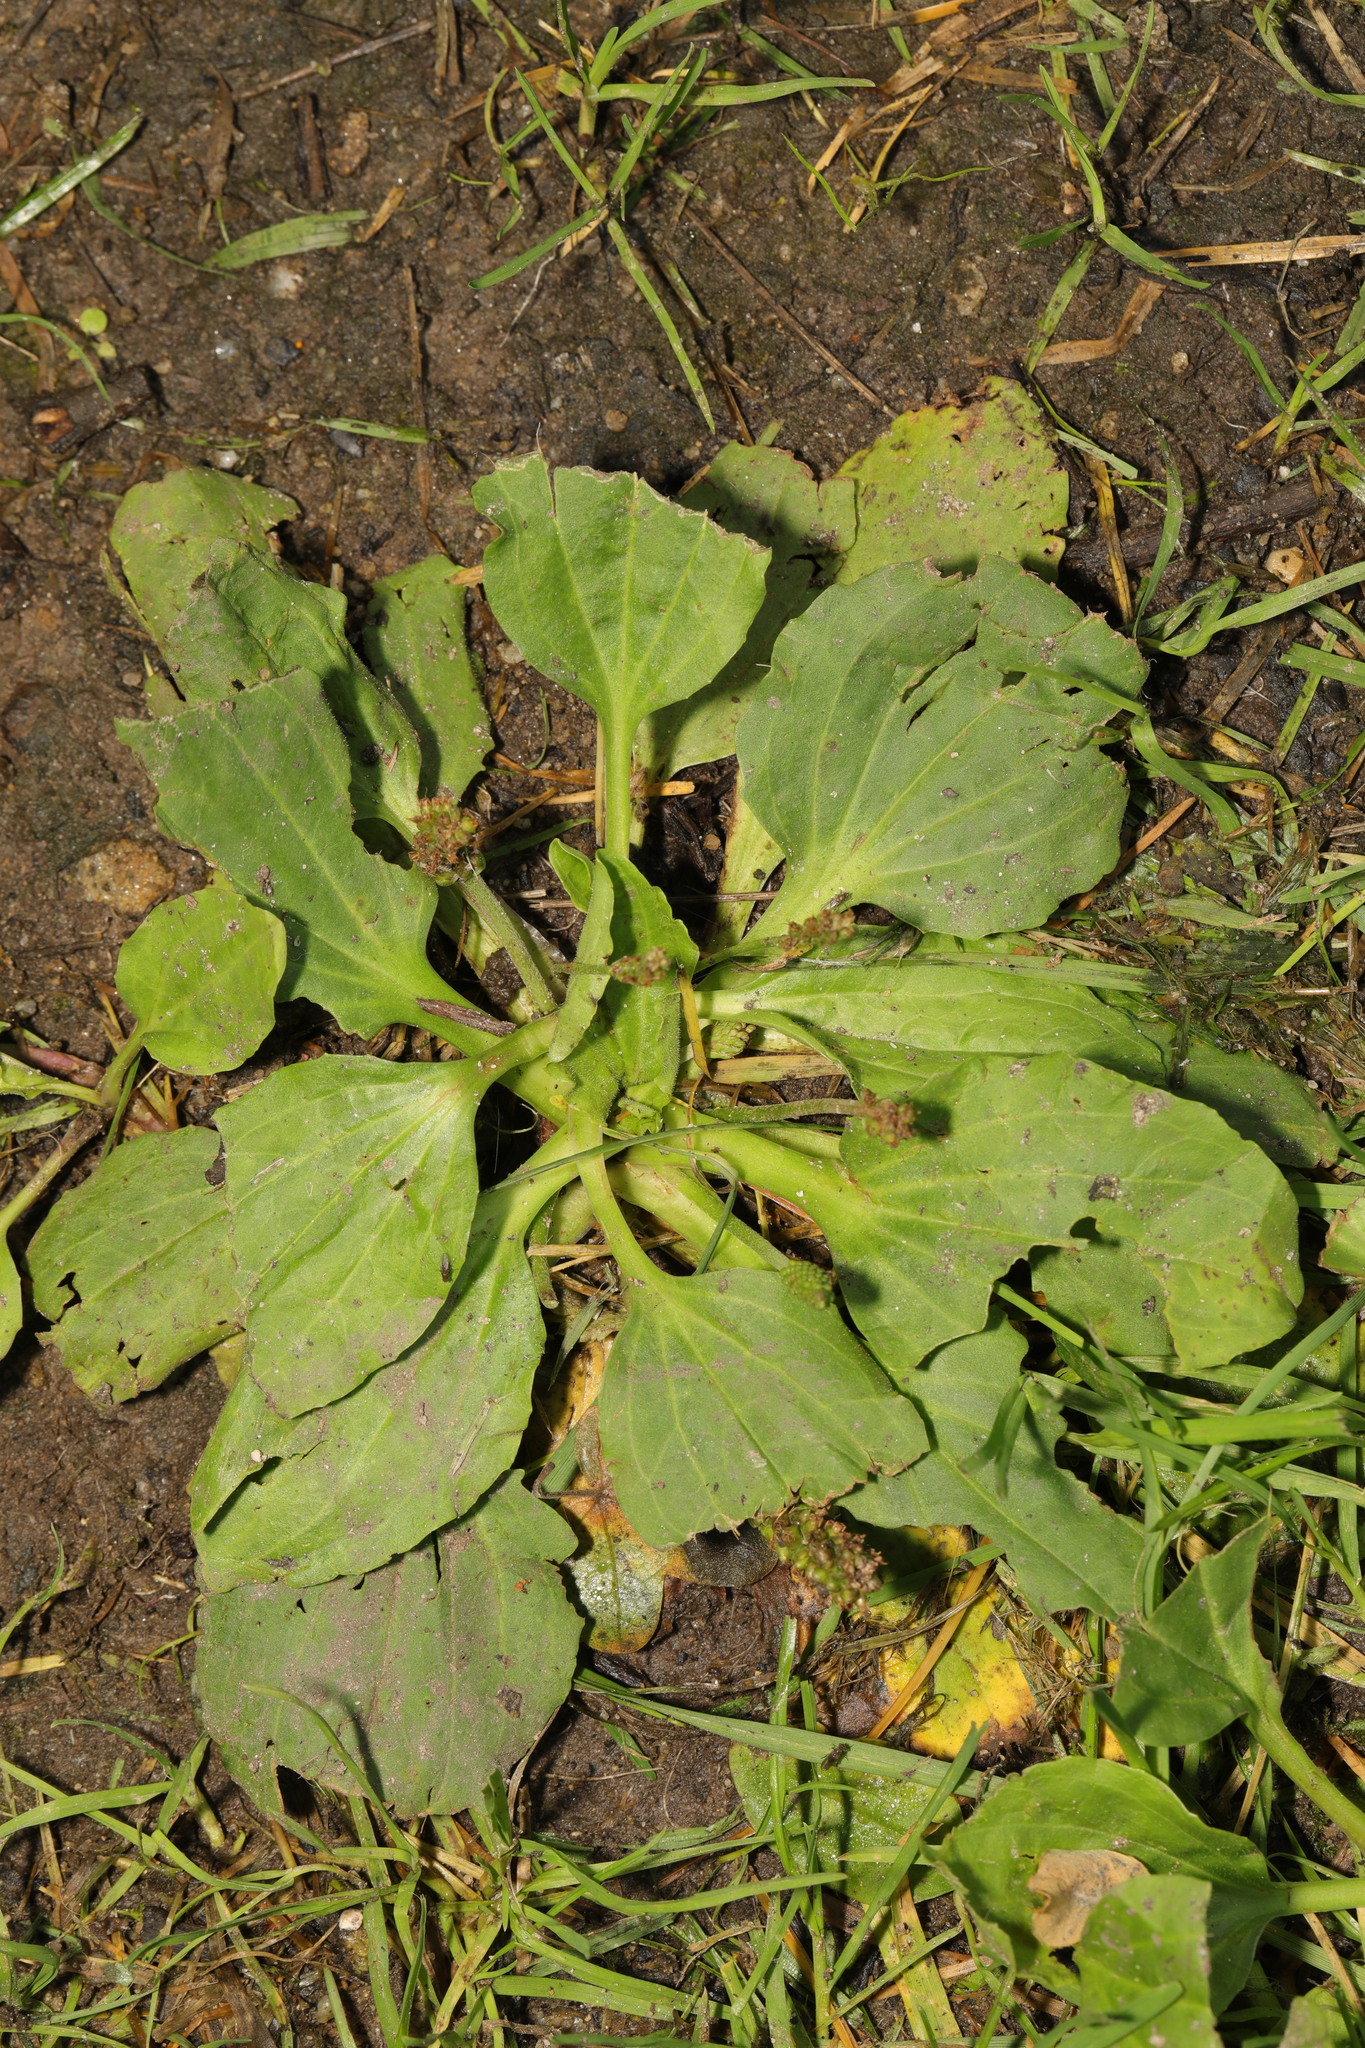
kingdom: Plantae
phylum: Tracheophyta
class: Magnoliopsida
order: Lamiales
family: Plantaginaceae
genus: Plantago
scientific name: Plantago major
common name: Common plantain
